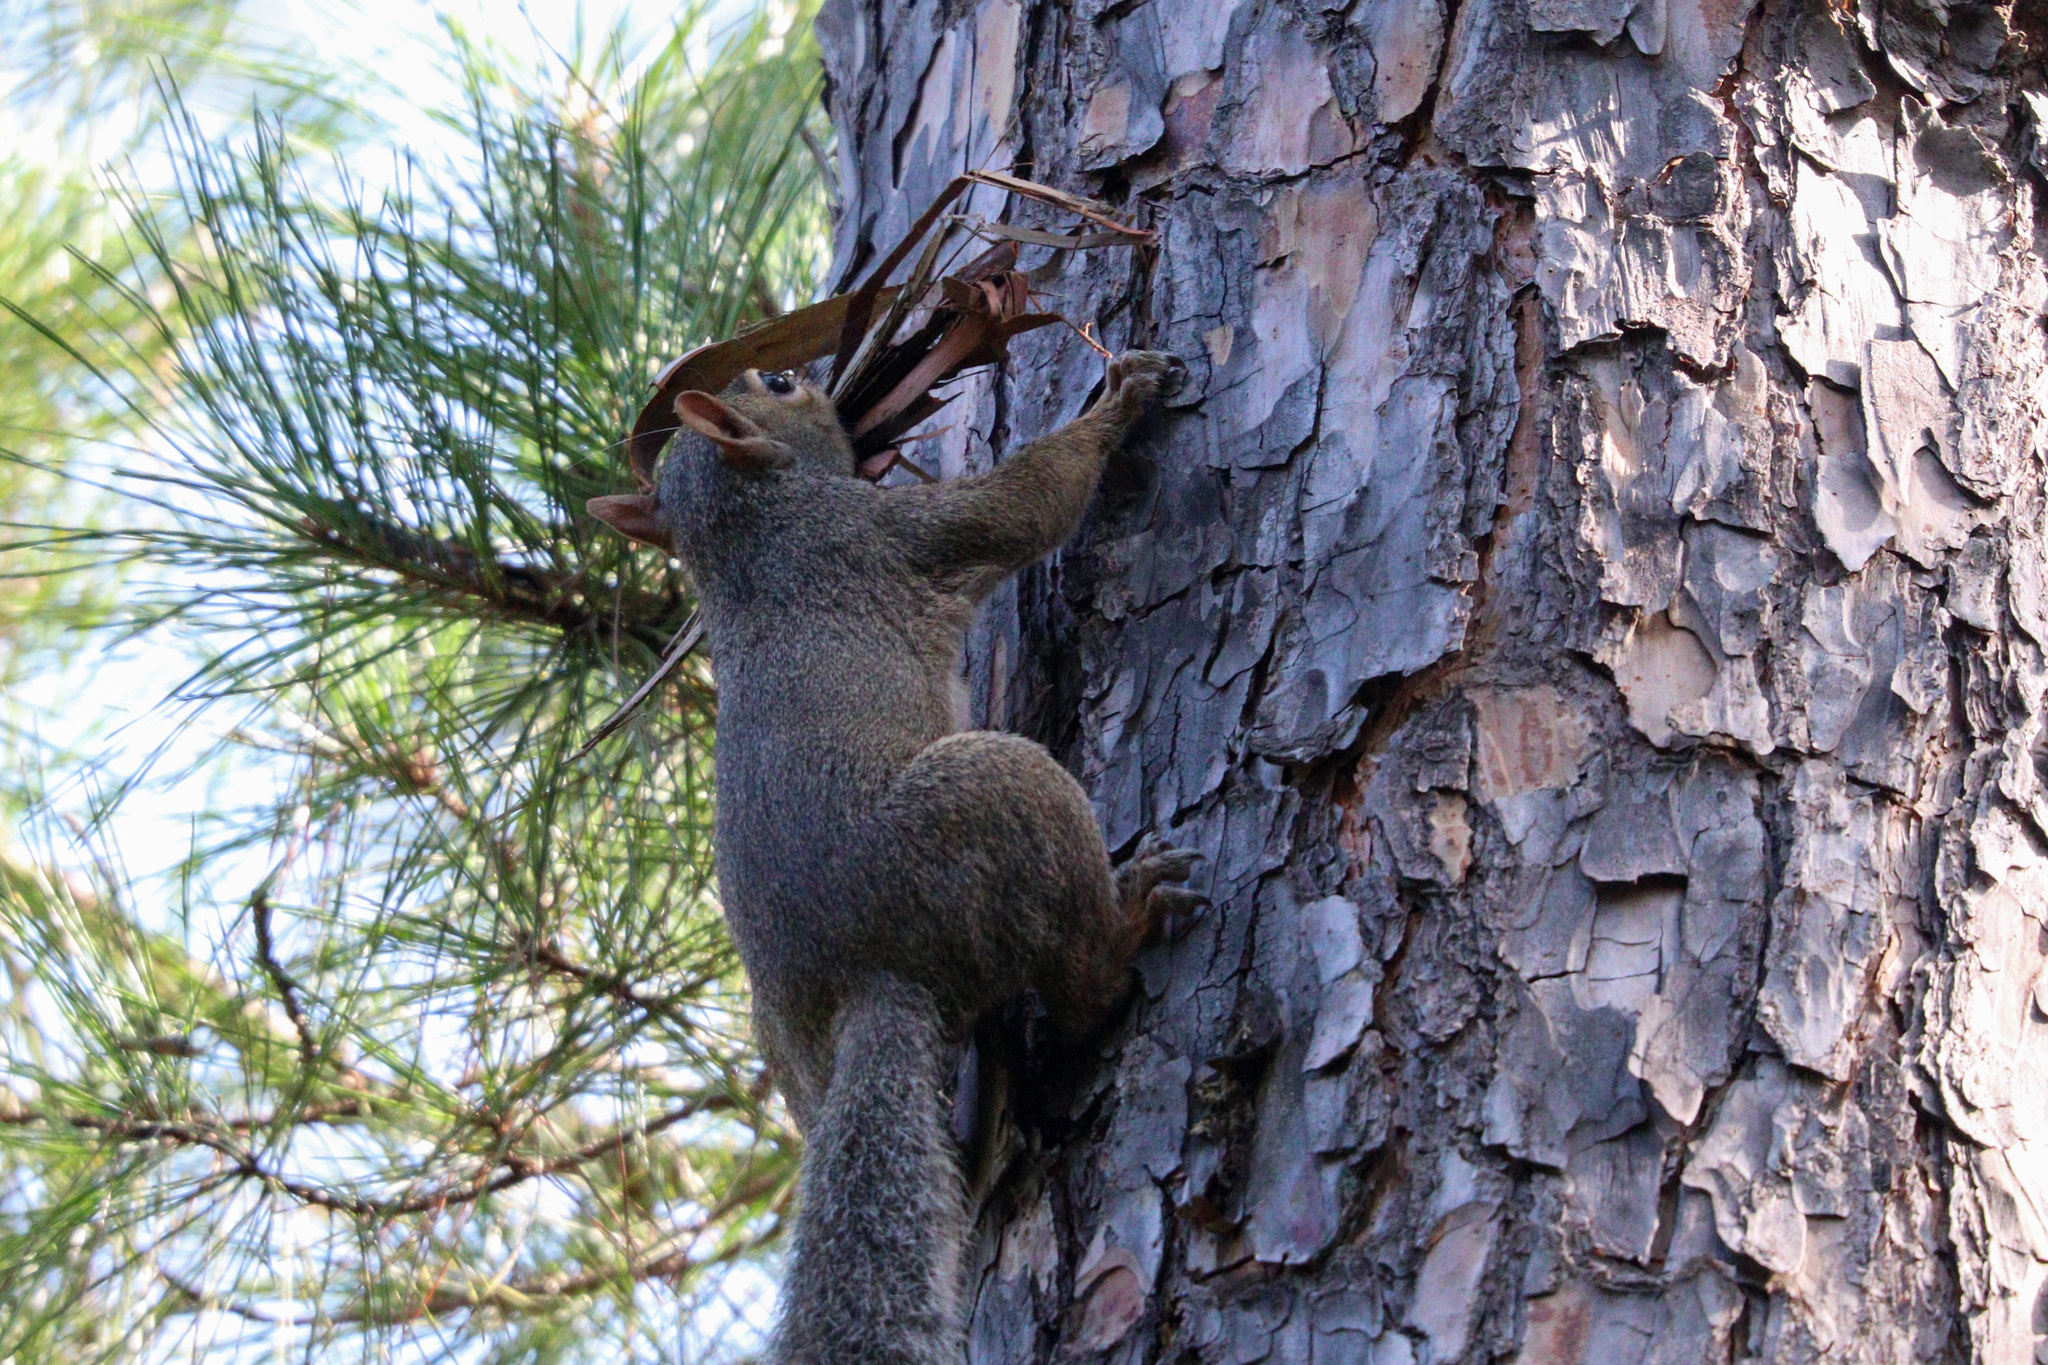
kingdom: Animalia
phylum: Chordata
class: Mammalia
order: Rodentia
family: Sciuridae
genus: Sciurus
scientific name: Sciurus carolinensis
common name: Eastern gray squirrel
